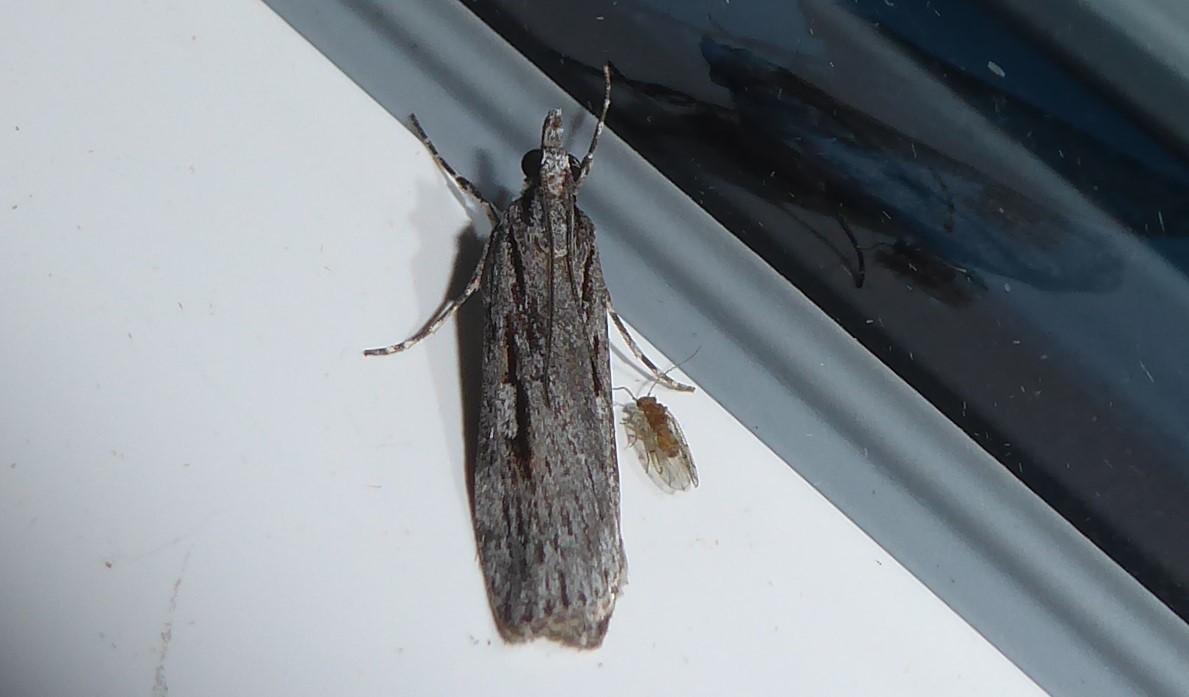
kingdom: Animalia
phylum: Arthropoda
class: Insecta
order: Lepidoptera
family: Crambidae
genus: Scoparia
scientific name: Scoparia indistinctalis
